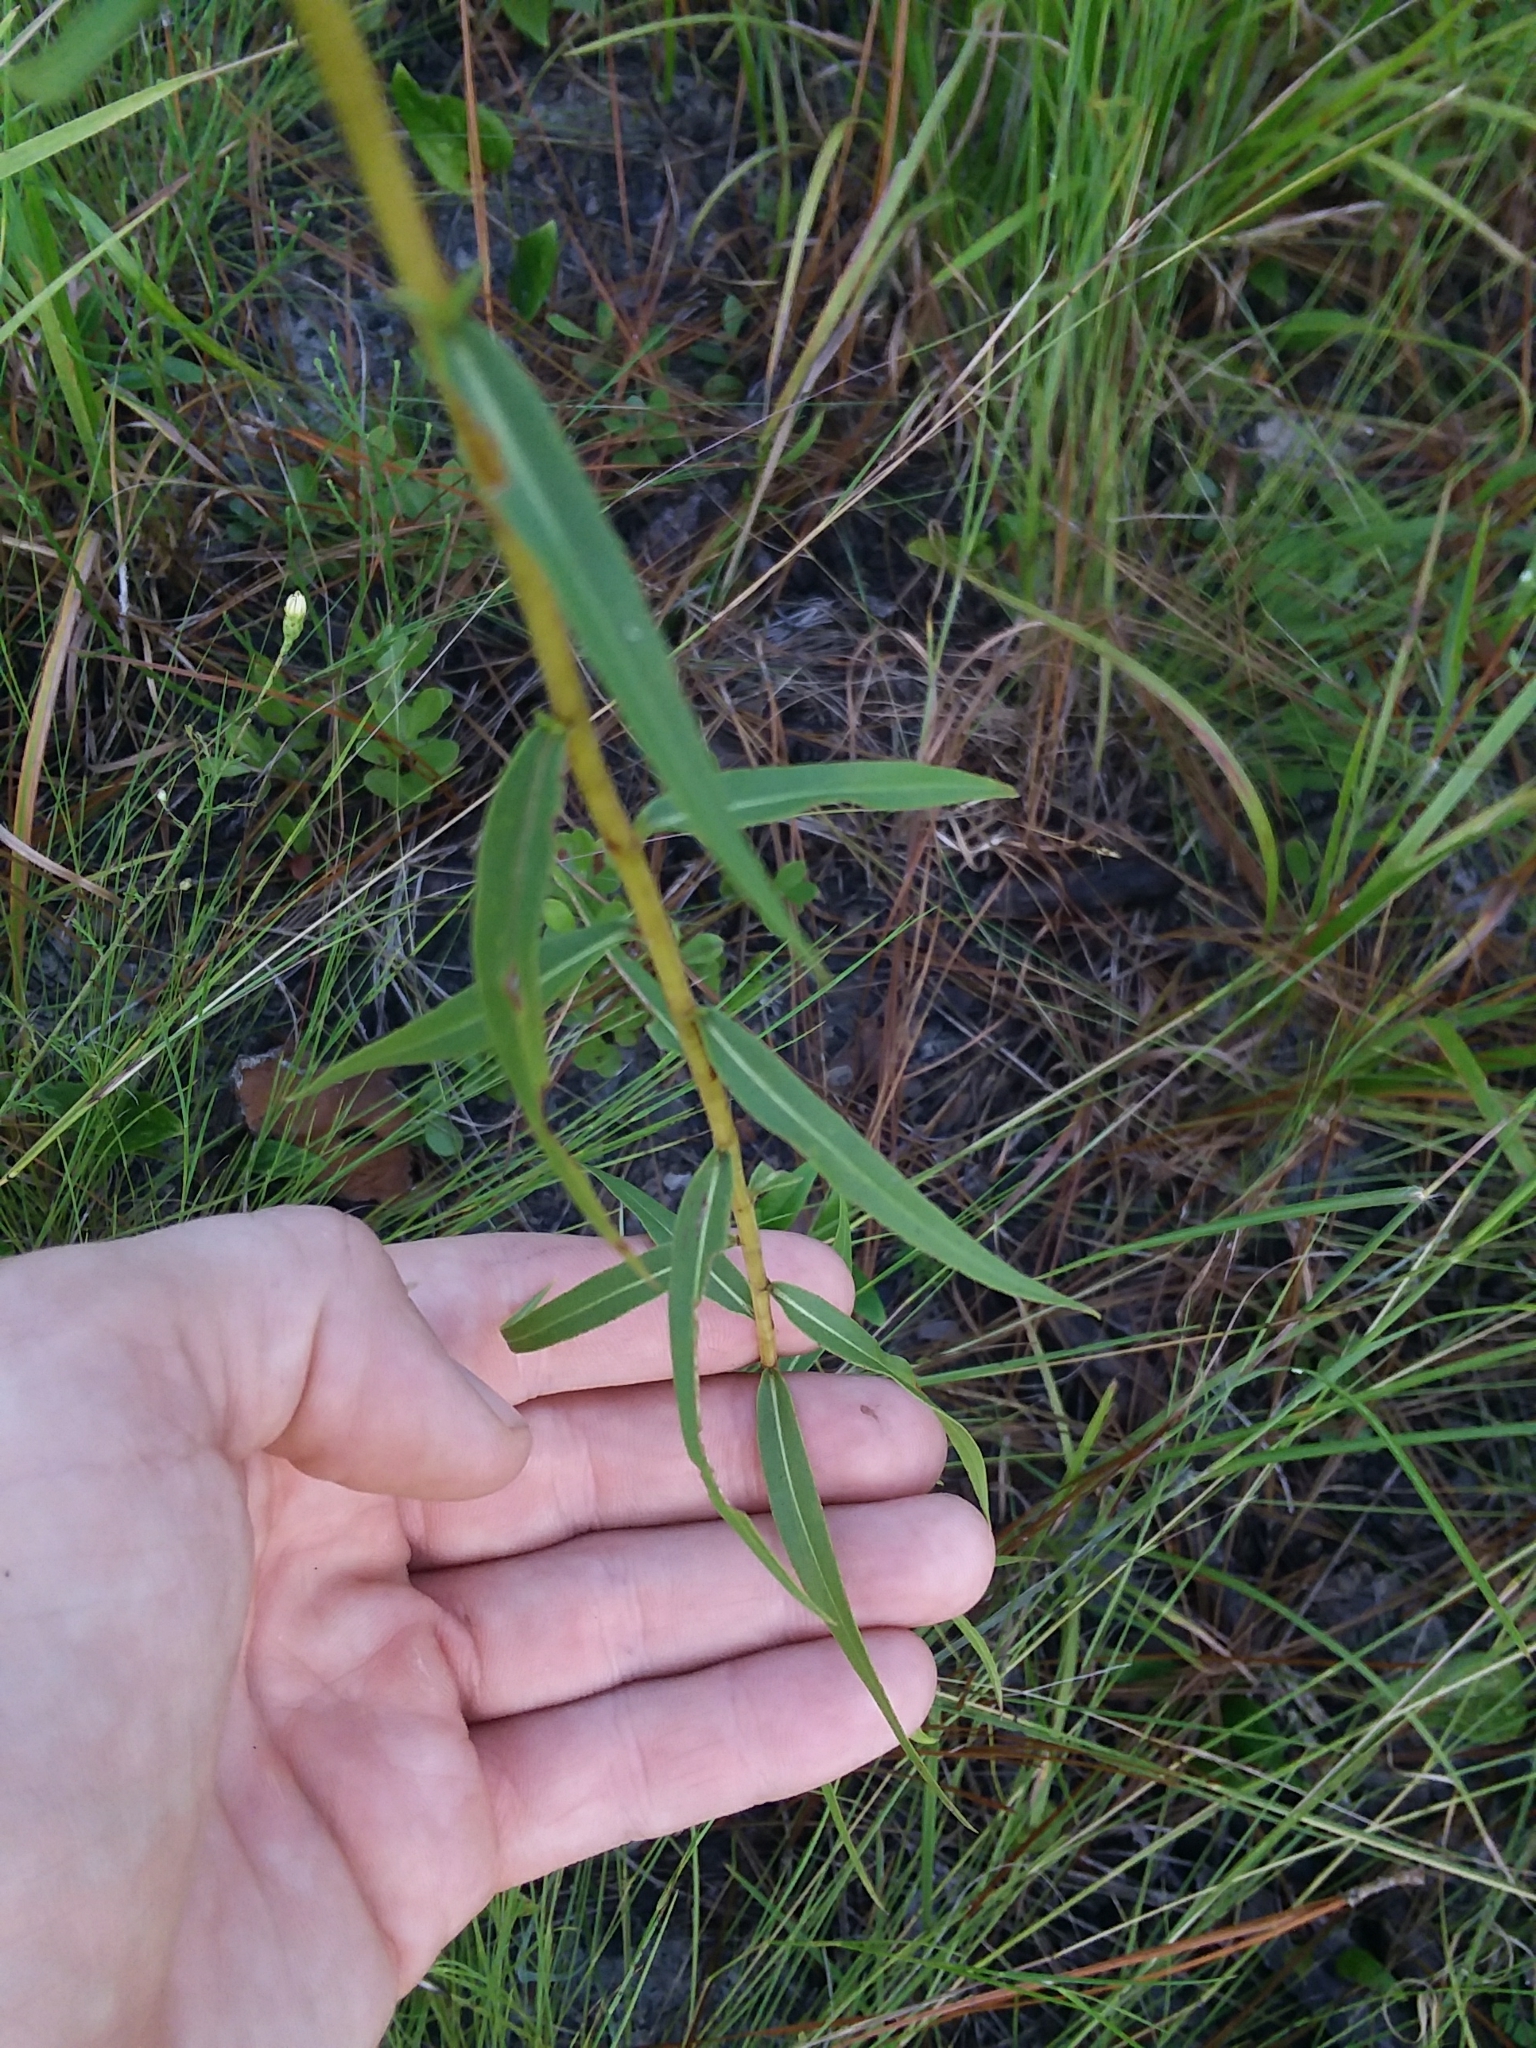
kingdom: Plantae
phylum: Tracheophyta
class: Magnoliopsida
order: Asterales
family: Asteraceae
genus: Solidago
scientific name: Solidago odora
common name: Anise-scented goldenrod
